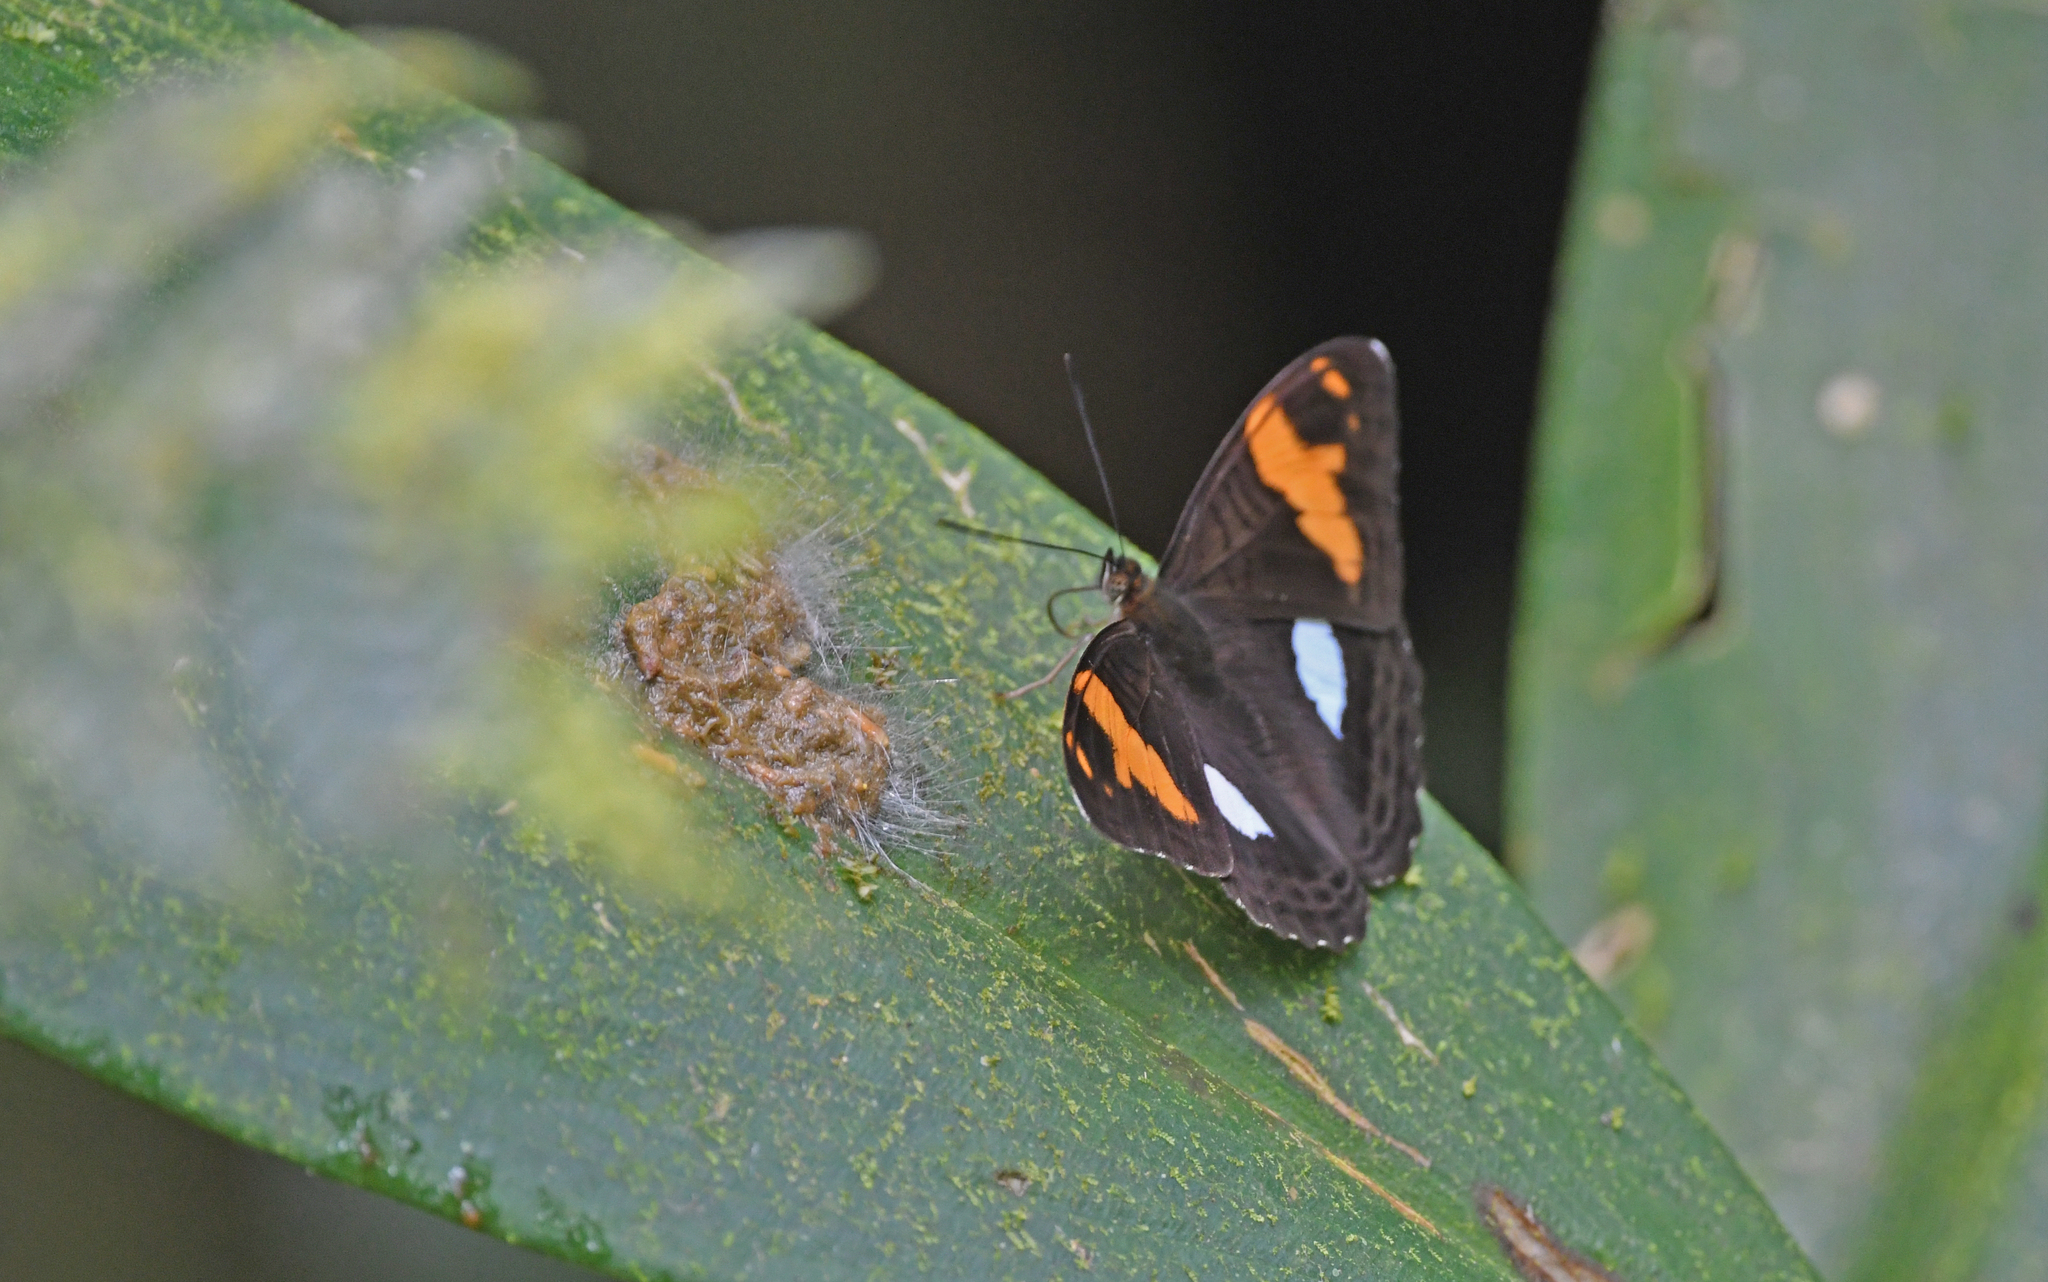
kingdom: Animalia
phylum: Arthropoda
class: Insecta
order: Lepidoptera
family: Nymphalidae
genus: Limenitis
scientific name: Limenitis justina
